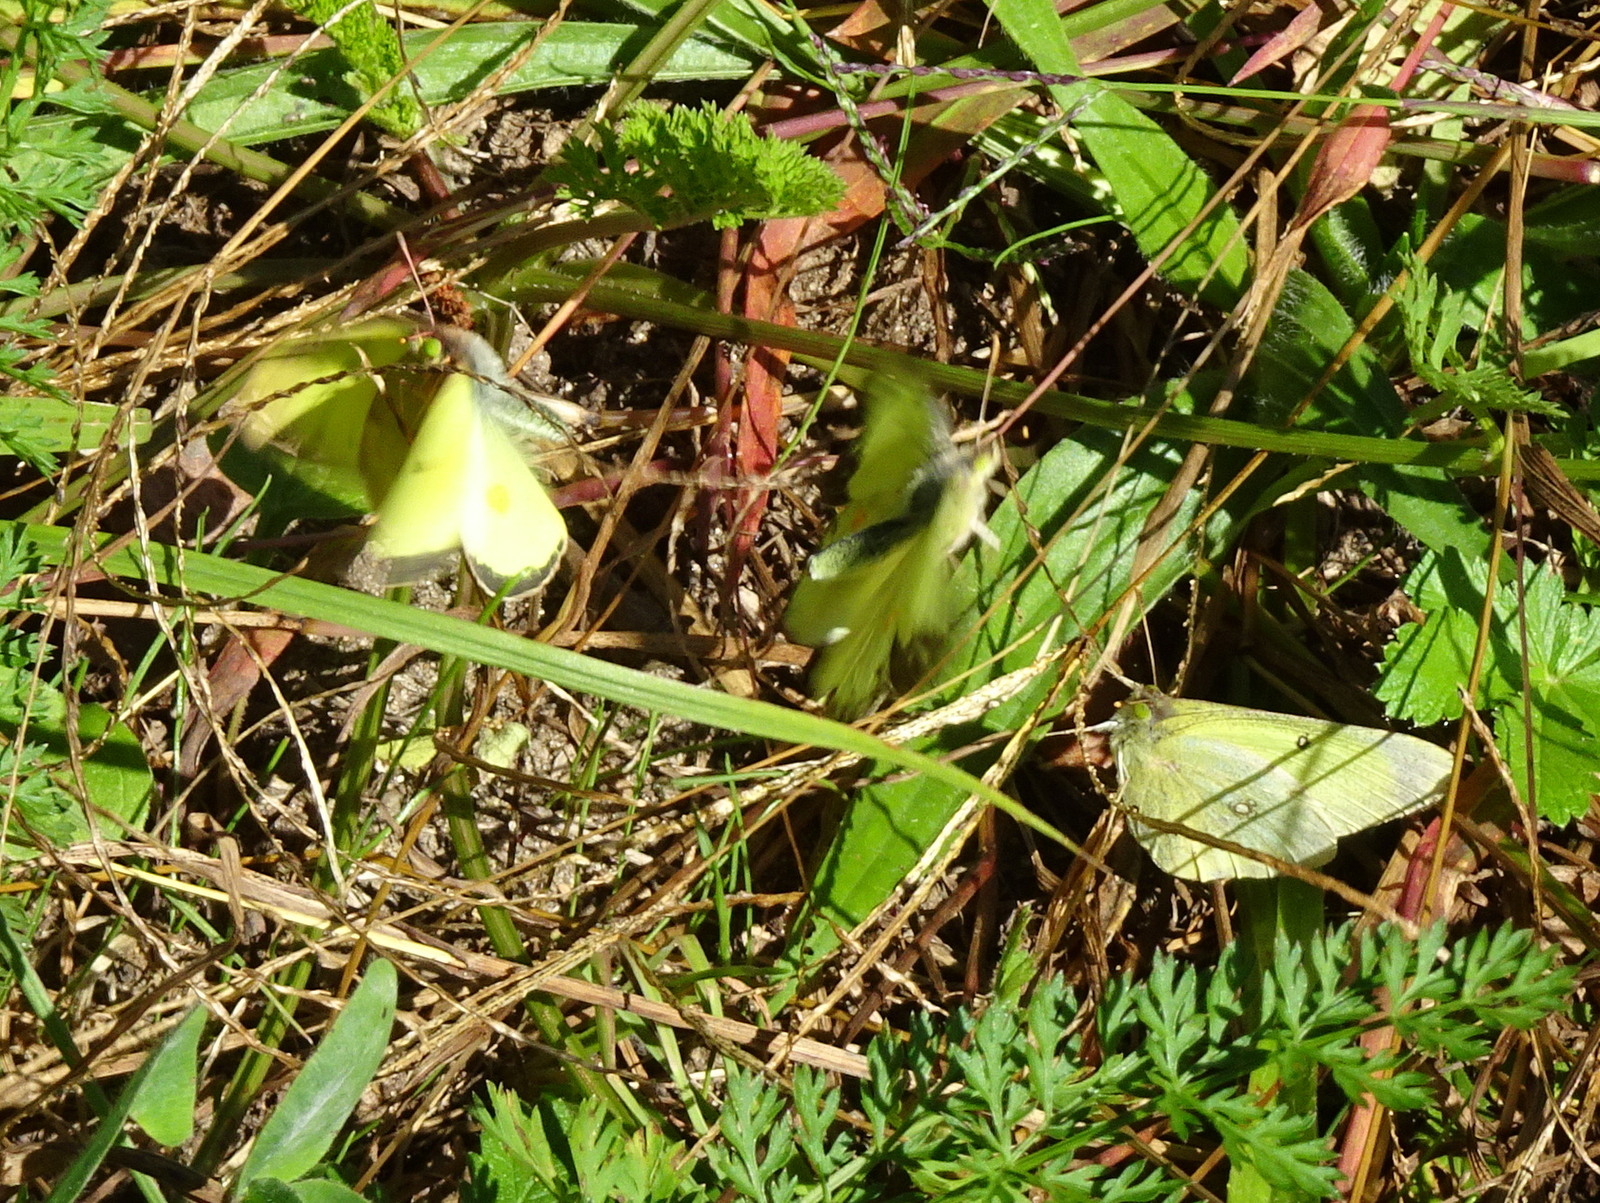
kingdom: Animalia
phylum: Arthropoda
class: Insecta
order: Lepidoptera
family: Pieridae
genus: Colias
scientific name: Colias philodice
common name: Clouded sulphur
